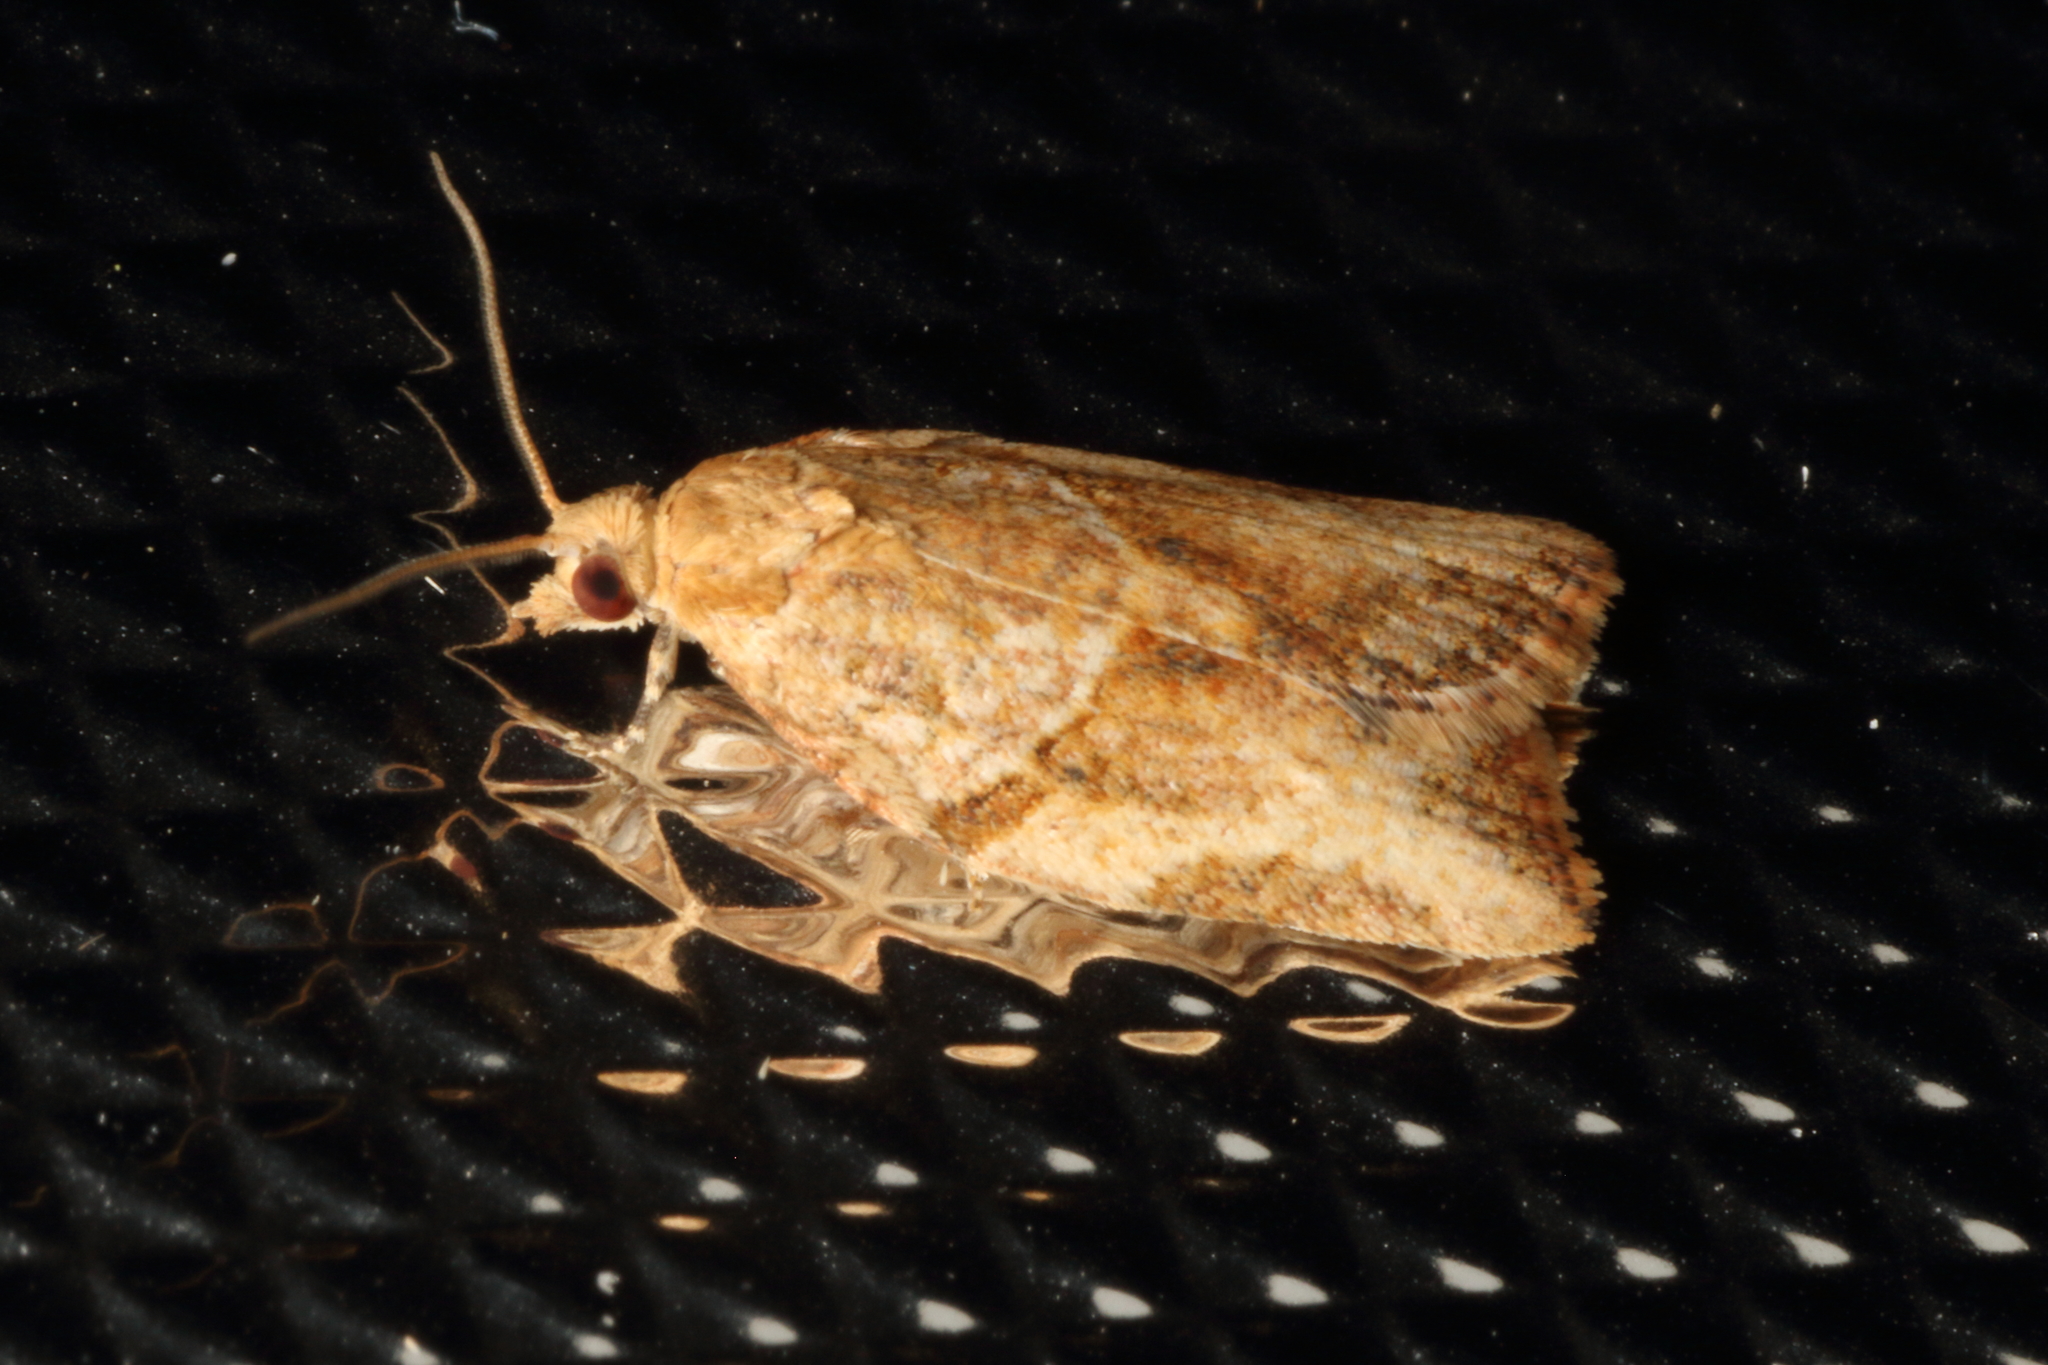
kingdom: Animalia
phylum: Arthropoda
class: Insecta
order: Lepidoptera
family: Tortricidae
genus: Epiphyas
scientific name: Epiphyas postvittana
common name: Light brown apple moth
